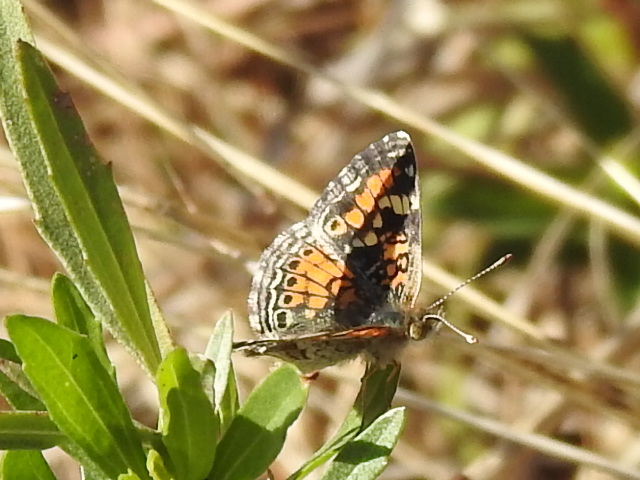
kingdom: Animalia
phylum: Arthropoda
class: Insecta
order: Lepidoptera
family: Nymphalidae
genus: Phyciodes
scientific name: Phyciodes phaon
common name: Phaon crescent
